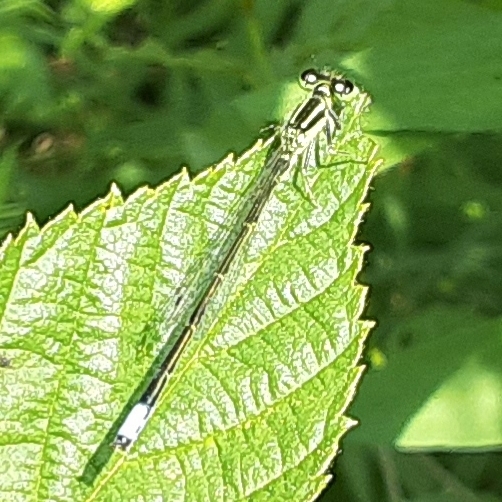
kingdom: Animalia
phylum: Arthropoda
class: Insecta
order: Odonata
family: Coenagrionidae
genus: Ischnura
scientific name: Ischnura verticalis
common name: Eastern forktail
